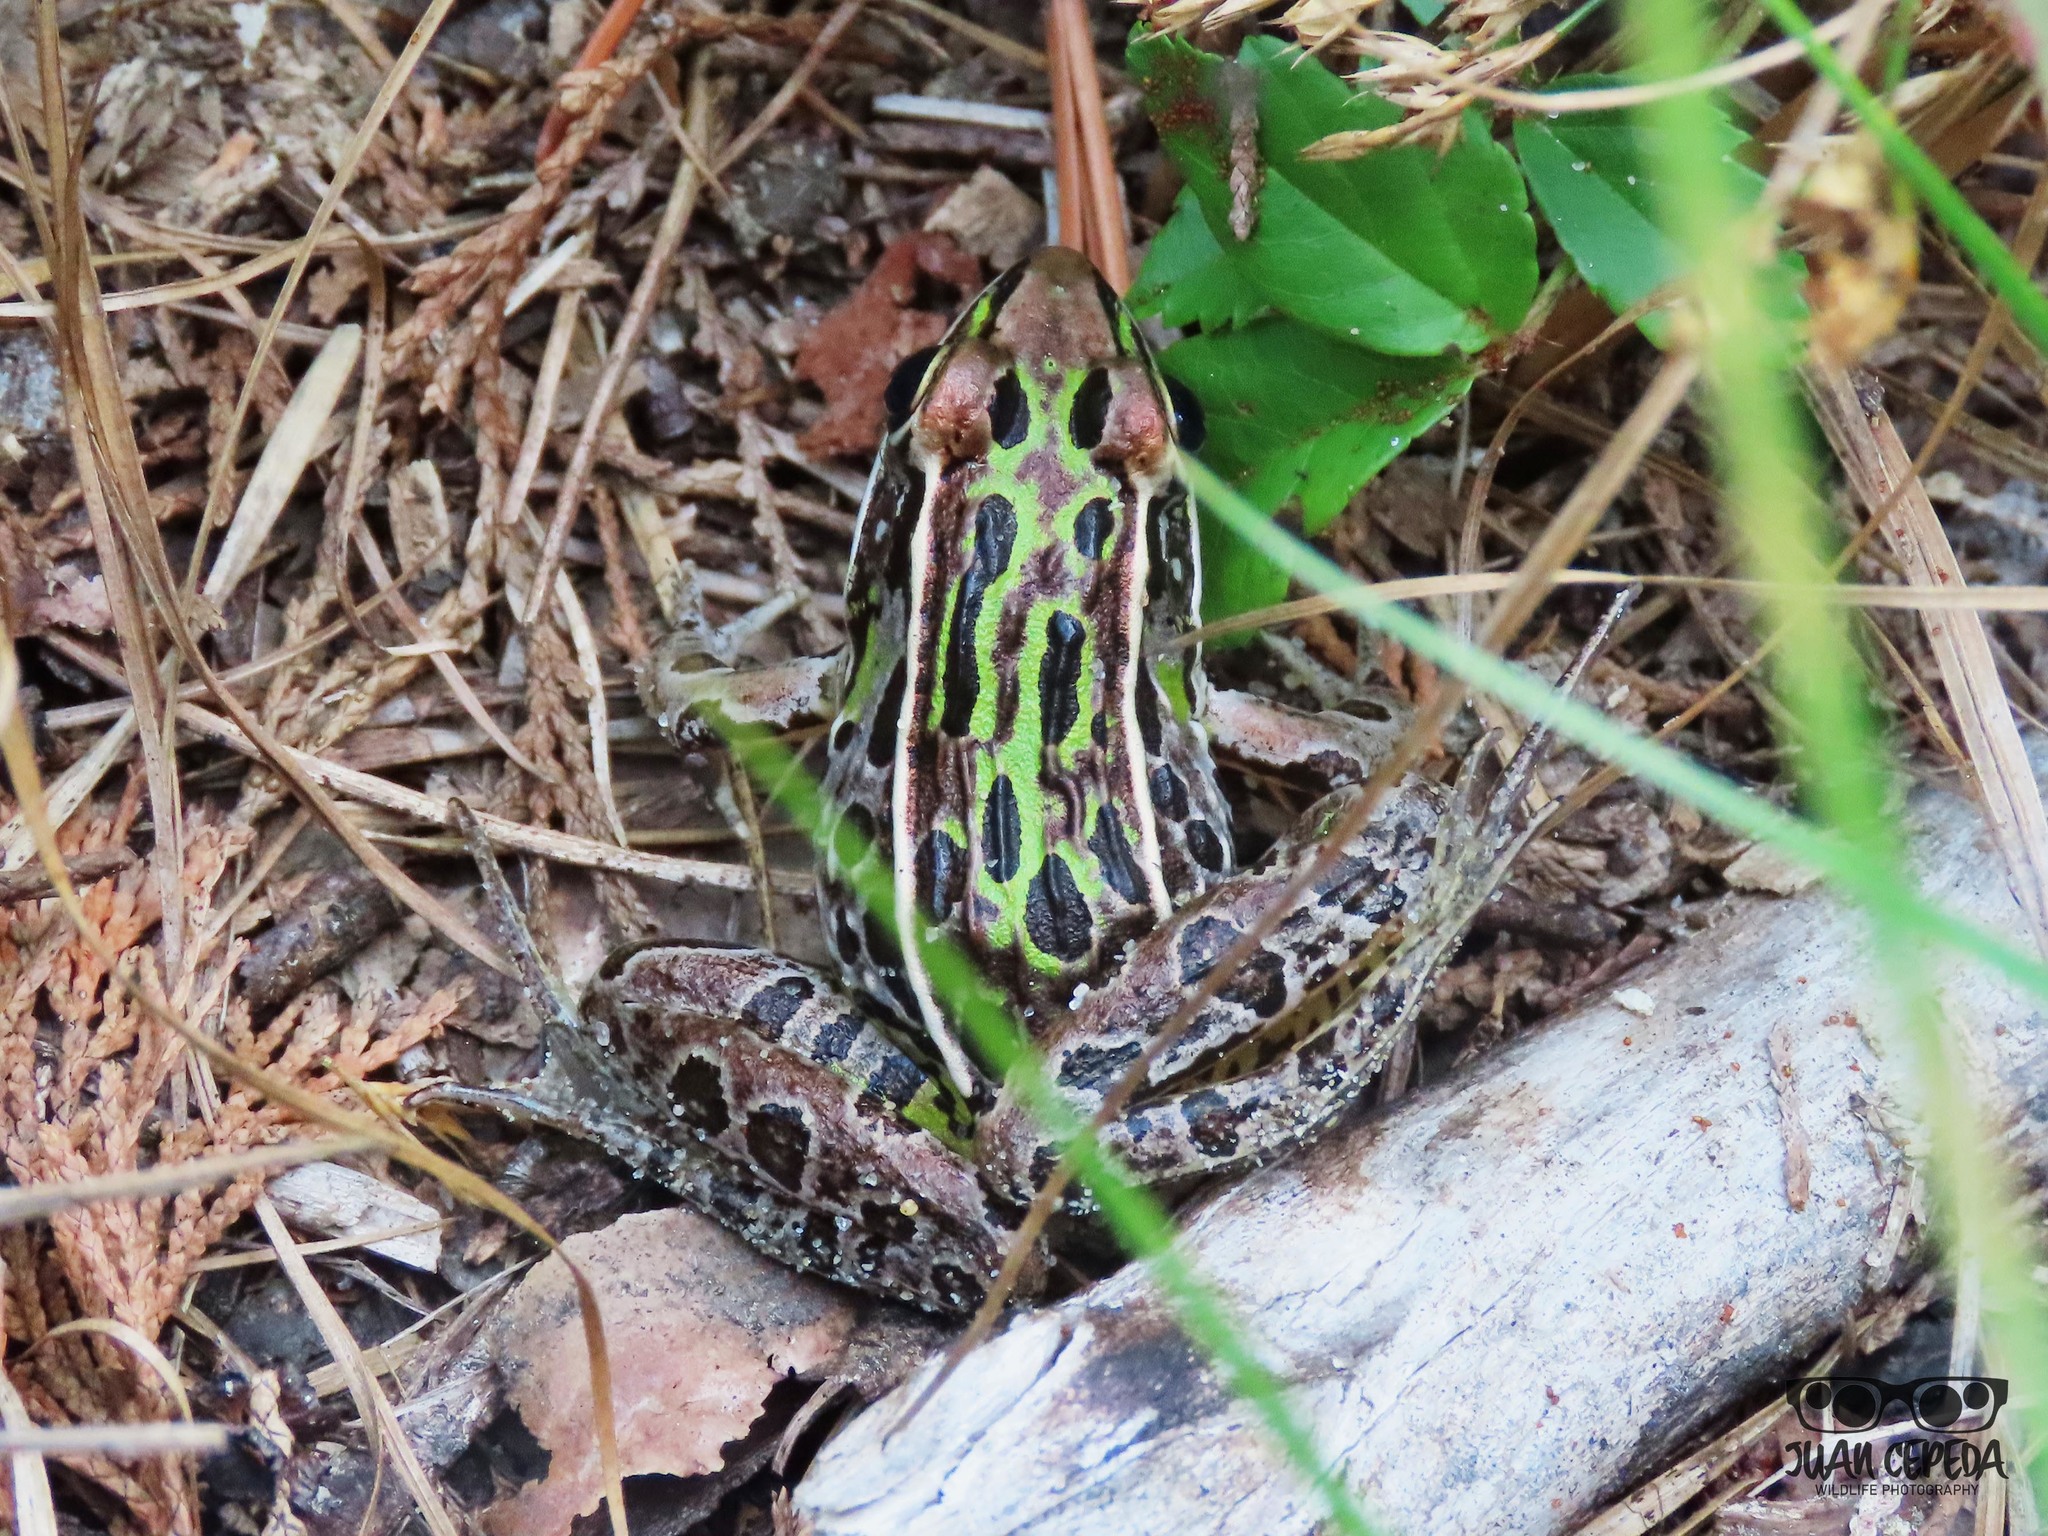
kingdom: Animalia
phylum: Chordata
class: Amphibia
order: Anura
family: Ranidae
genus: Lithobates
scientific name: Lithobates sphenocephalus
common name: Southern leopard frog
